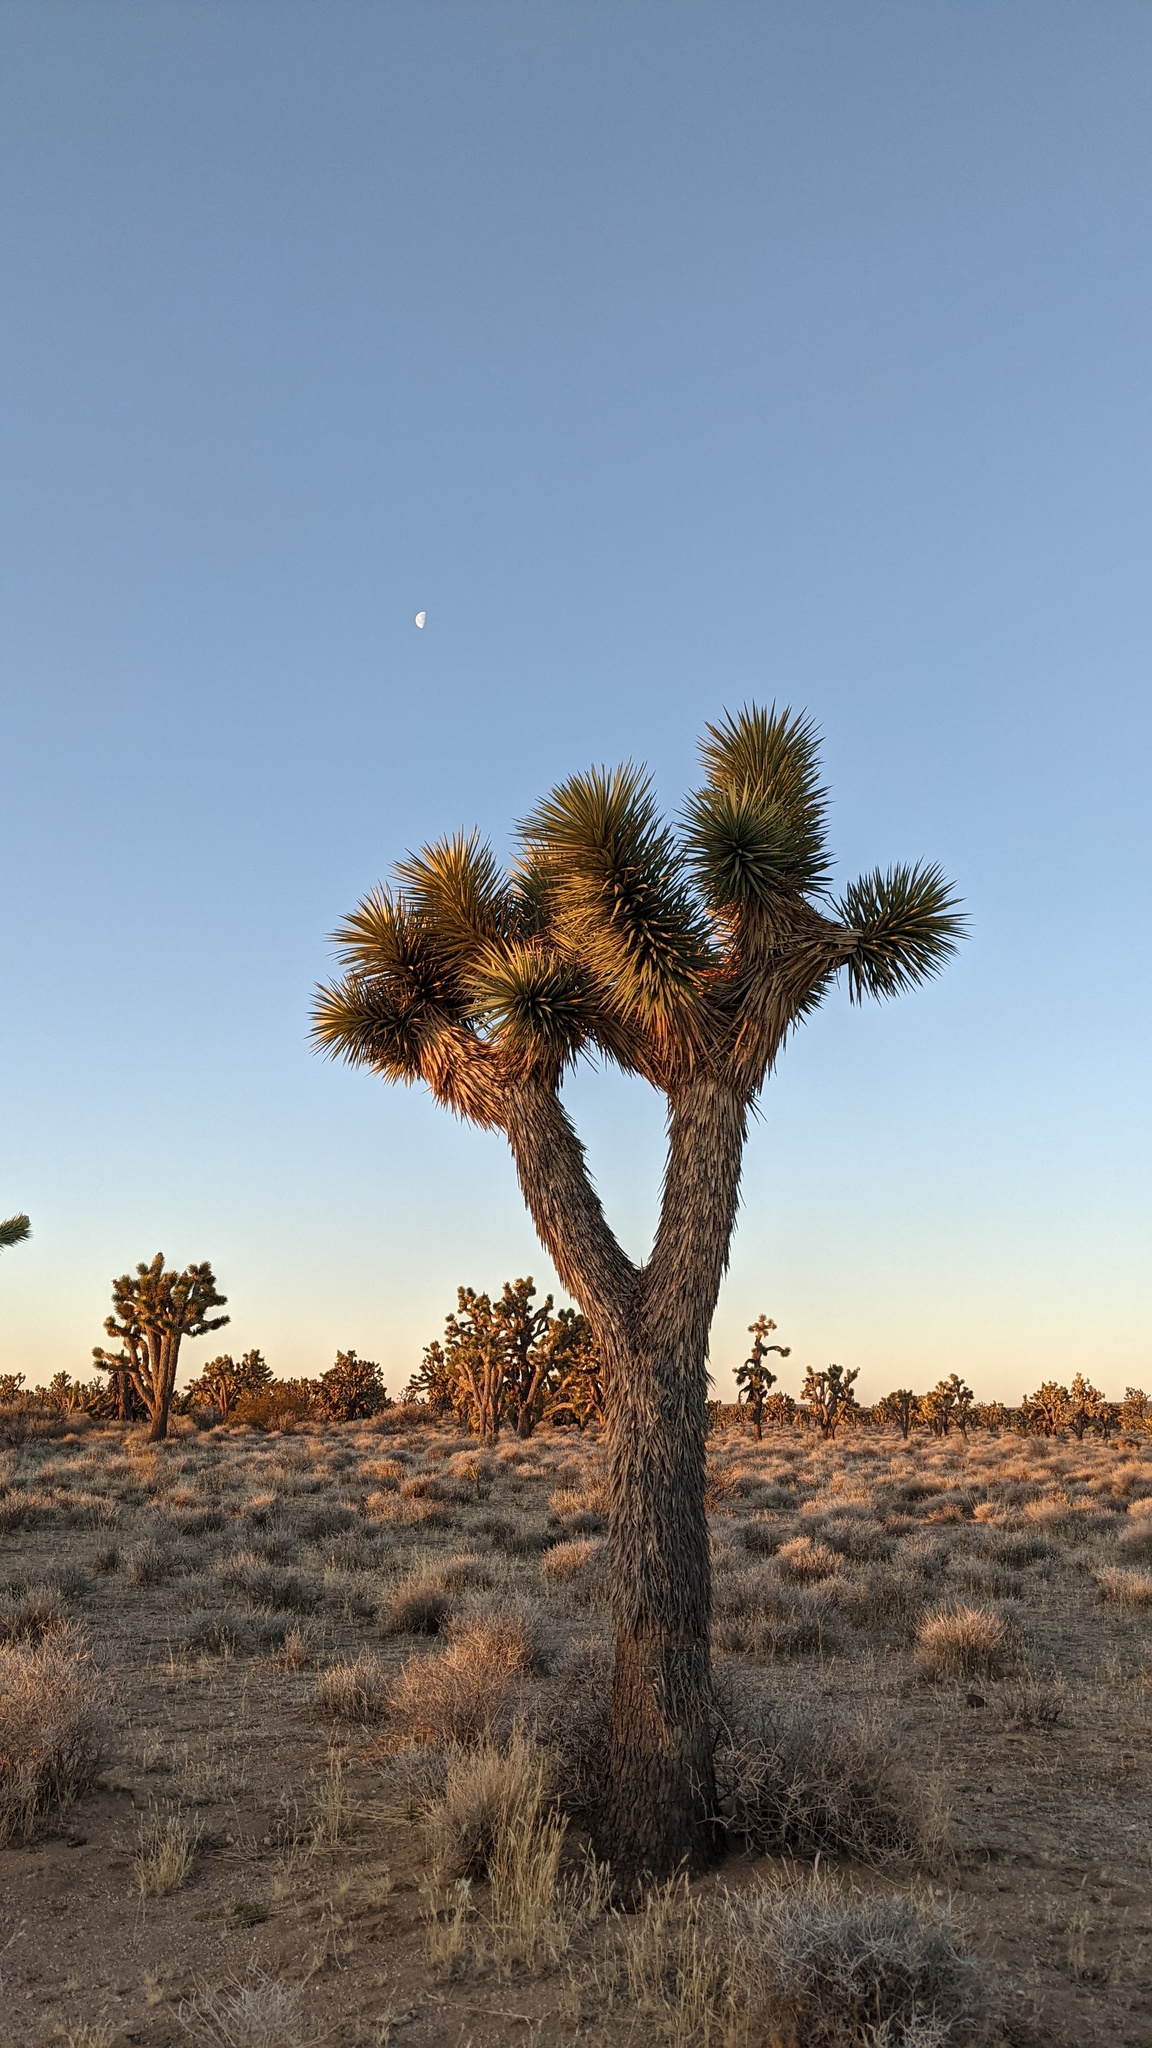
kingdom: Plantae
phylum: Tracheophyta
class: Liliopsida
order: Asparagales
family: Asparagaceae
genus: Yucca
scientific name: Yucca brevifolia
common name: Joshua tree
